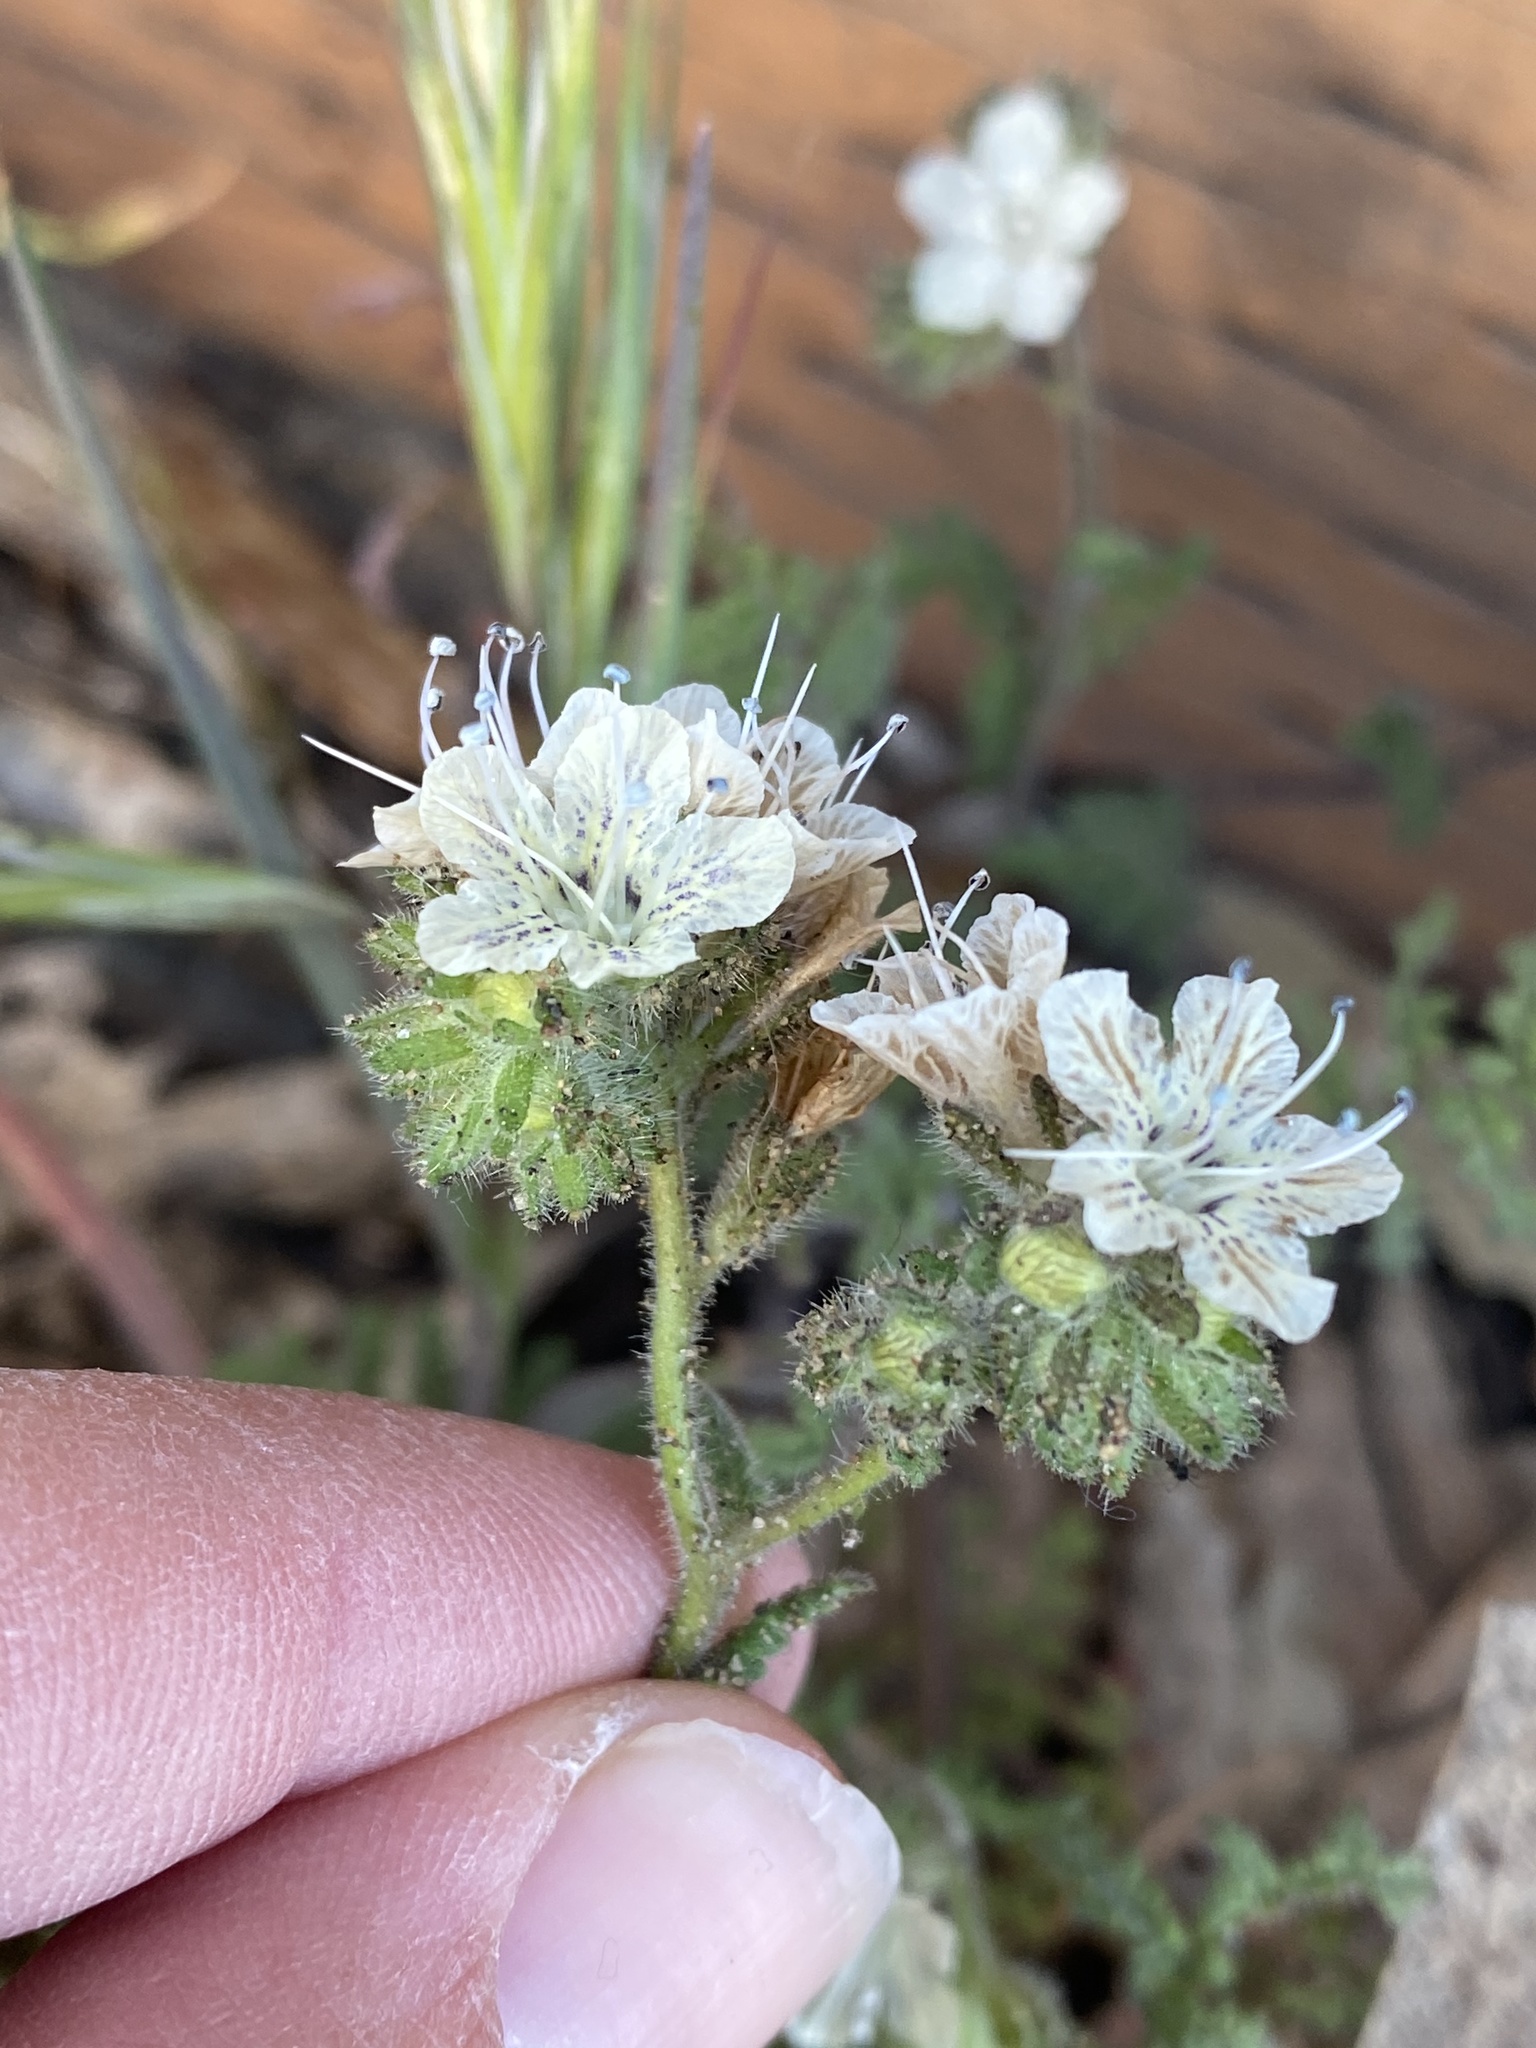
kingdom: Plantae
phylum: Tracheophyta
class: Magnoliopsida
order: Boraginales
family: Hydrophyllaceae
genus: Phacelia
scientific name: Phacelia californica
